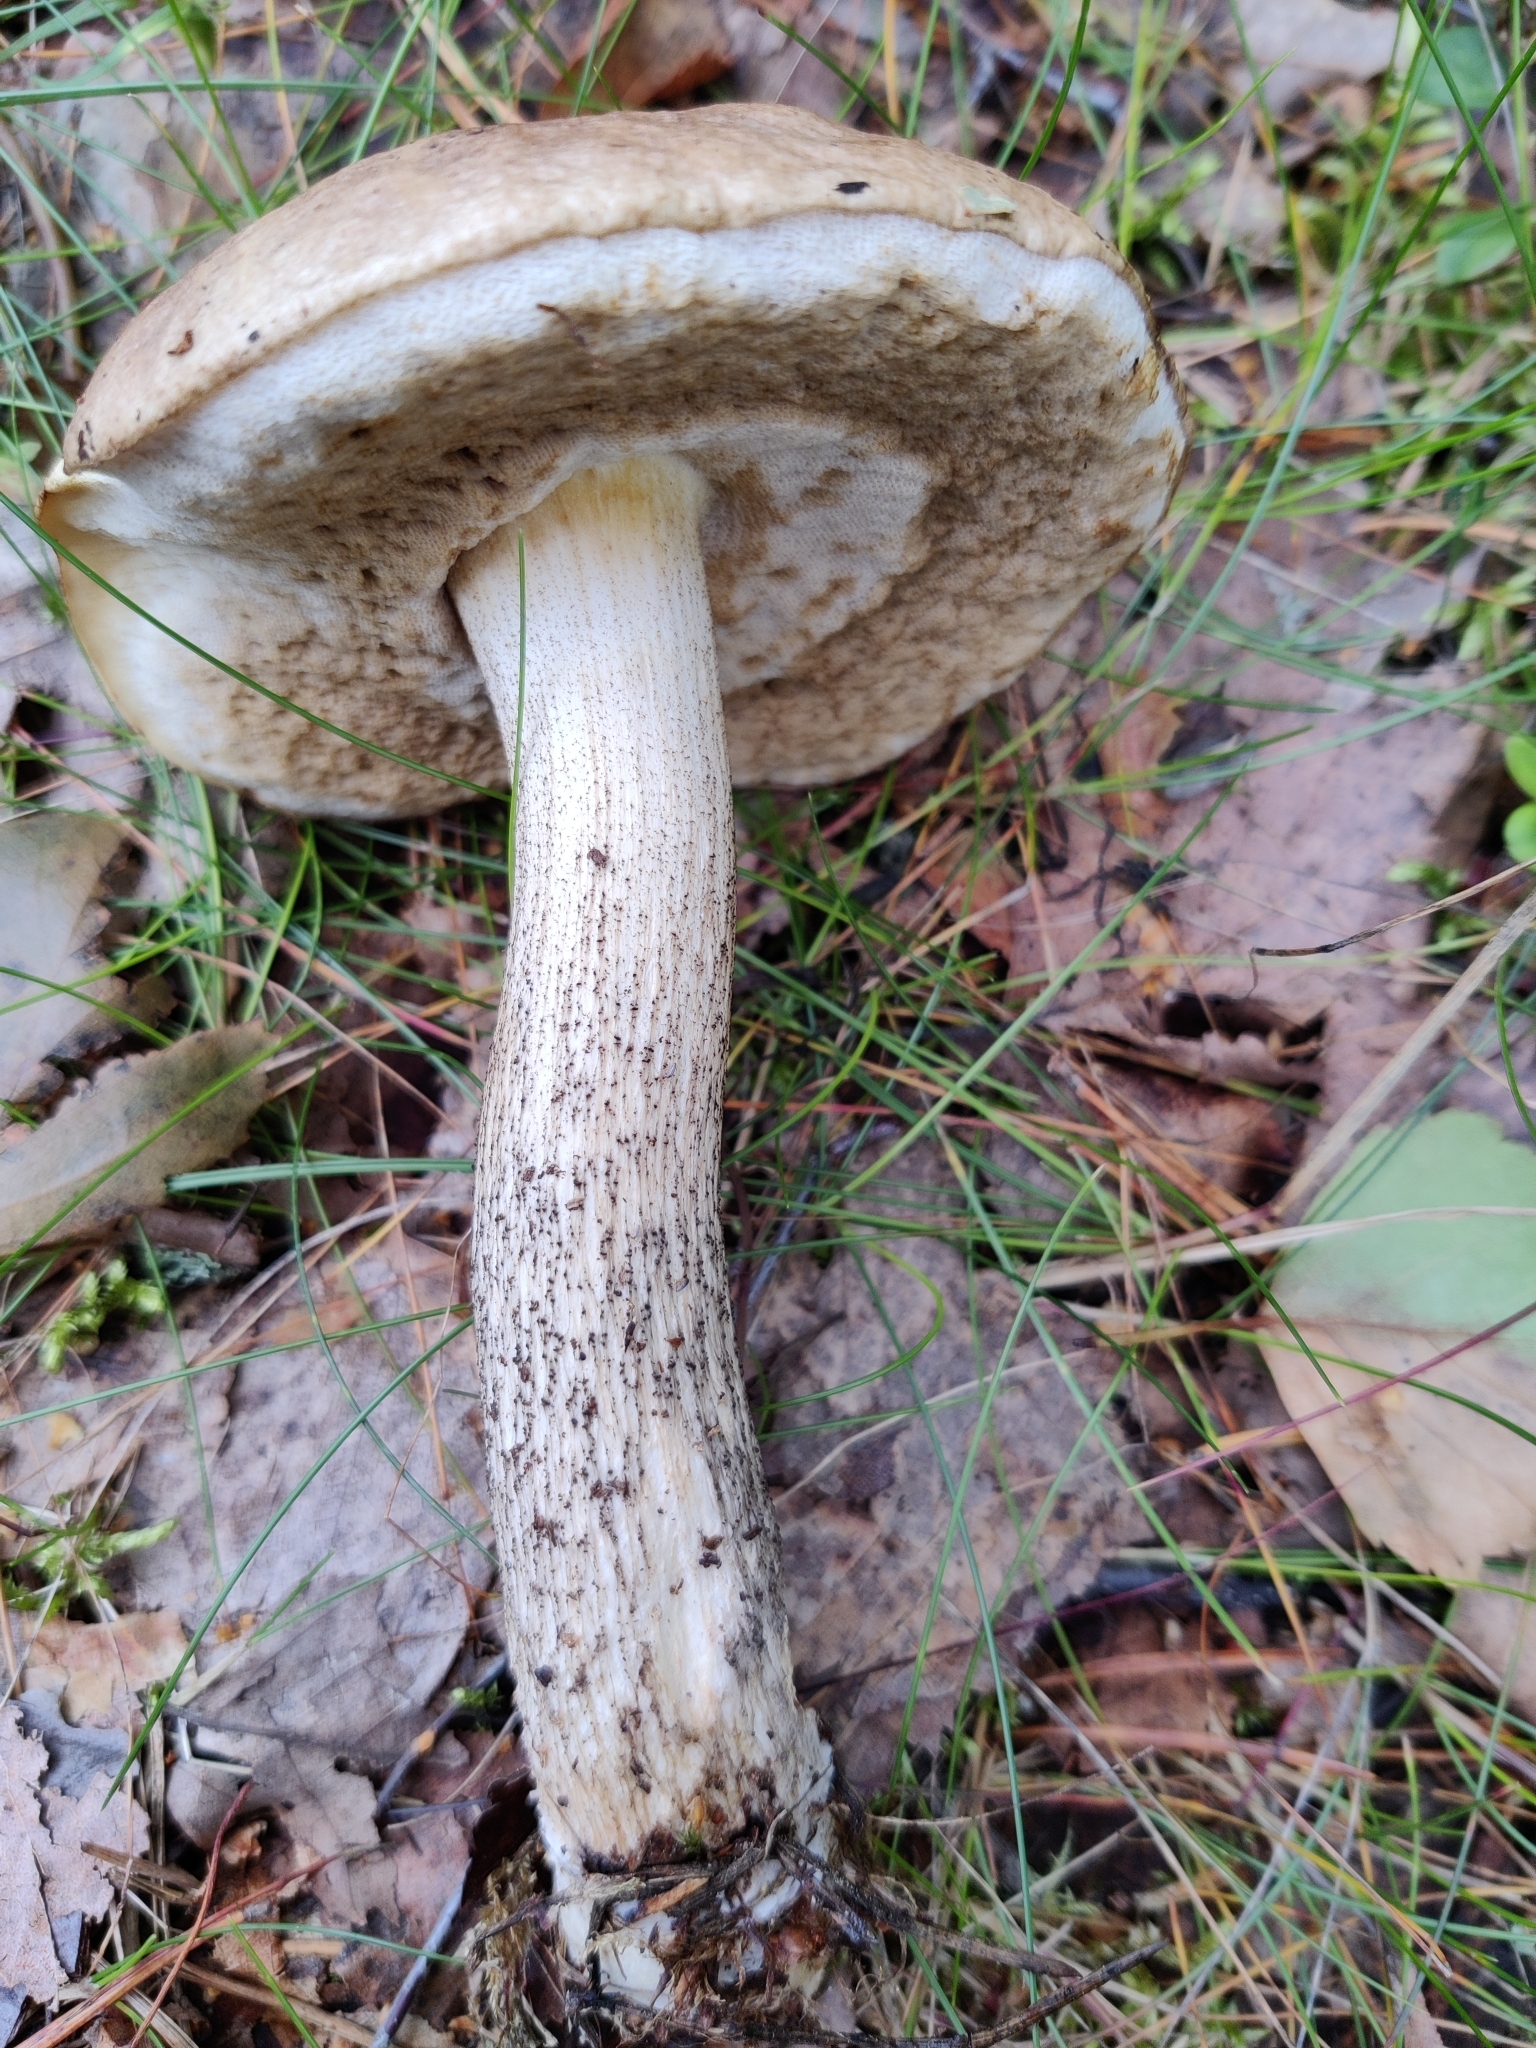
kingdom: Fungi
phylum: Basidiomycota
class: Agaricomycetes
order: Boletales
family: Boletaceae
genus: Leccinum
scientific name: Leccinum scabrum
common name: Blushing bolete
